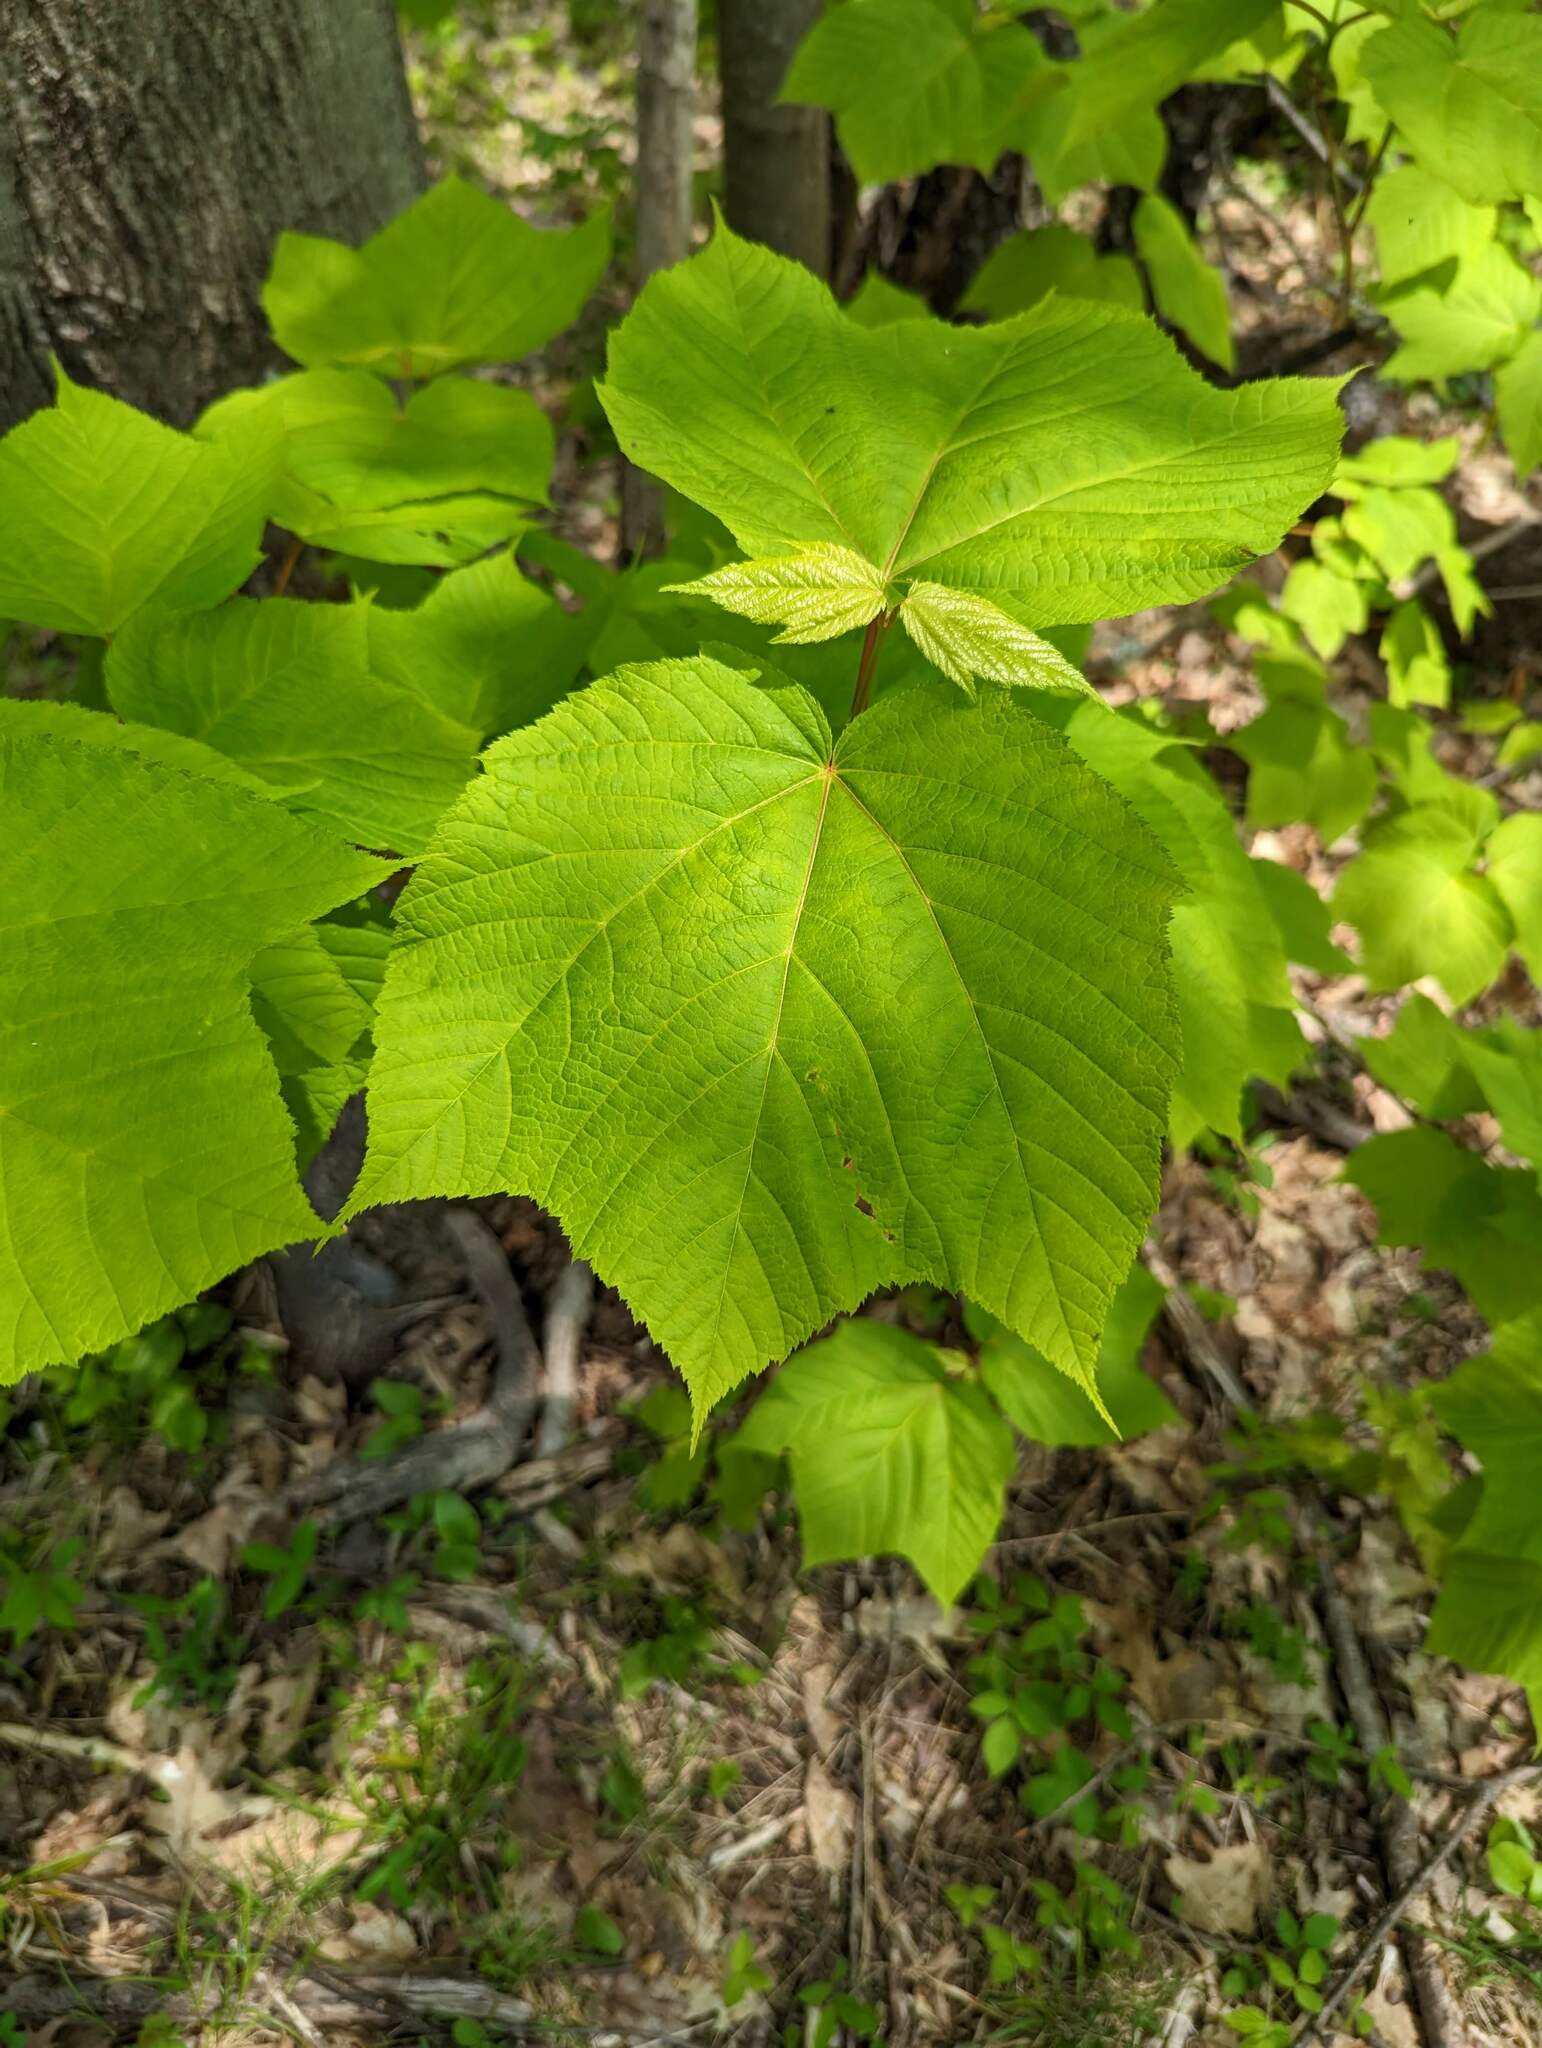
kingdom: Plantae
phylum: Tracheophyta
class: Magnoliopsida
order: Sapindales
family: Sapindaceae
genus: Acer
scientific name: Acer pensylvanicum
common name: Moosewood
